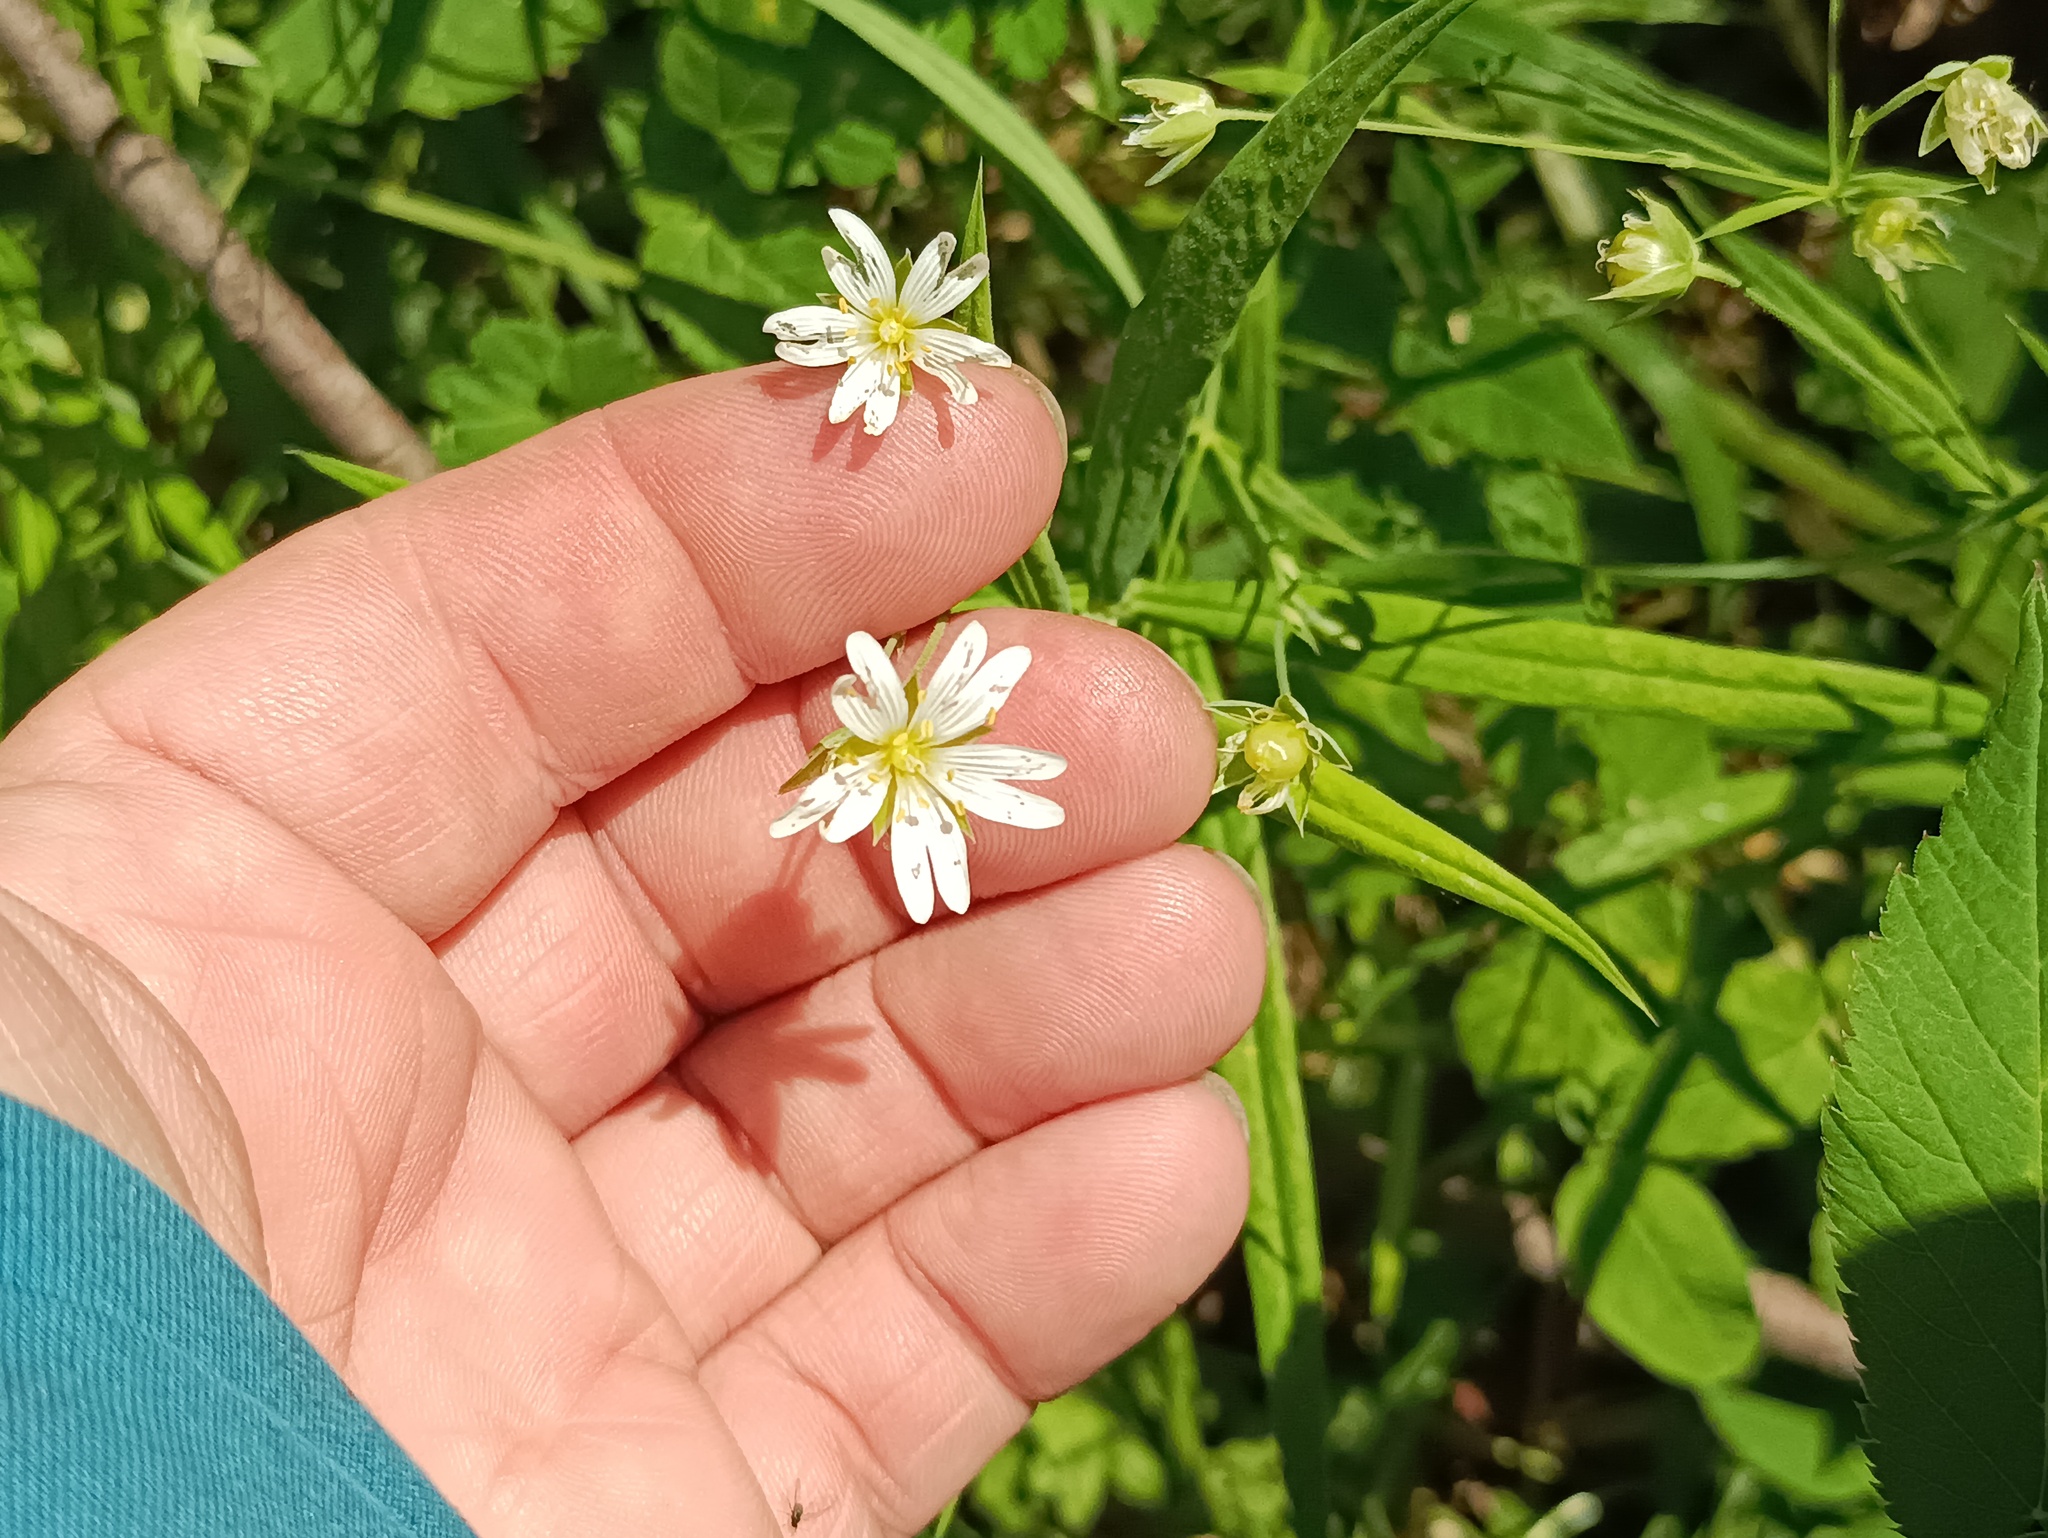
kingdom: Plantae
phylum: Tracheophyta
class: Magnoliopsida
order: Caryophyllales
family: Caryophyllaceae
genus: Rabelera
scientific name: Rabelera holostea
